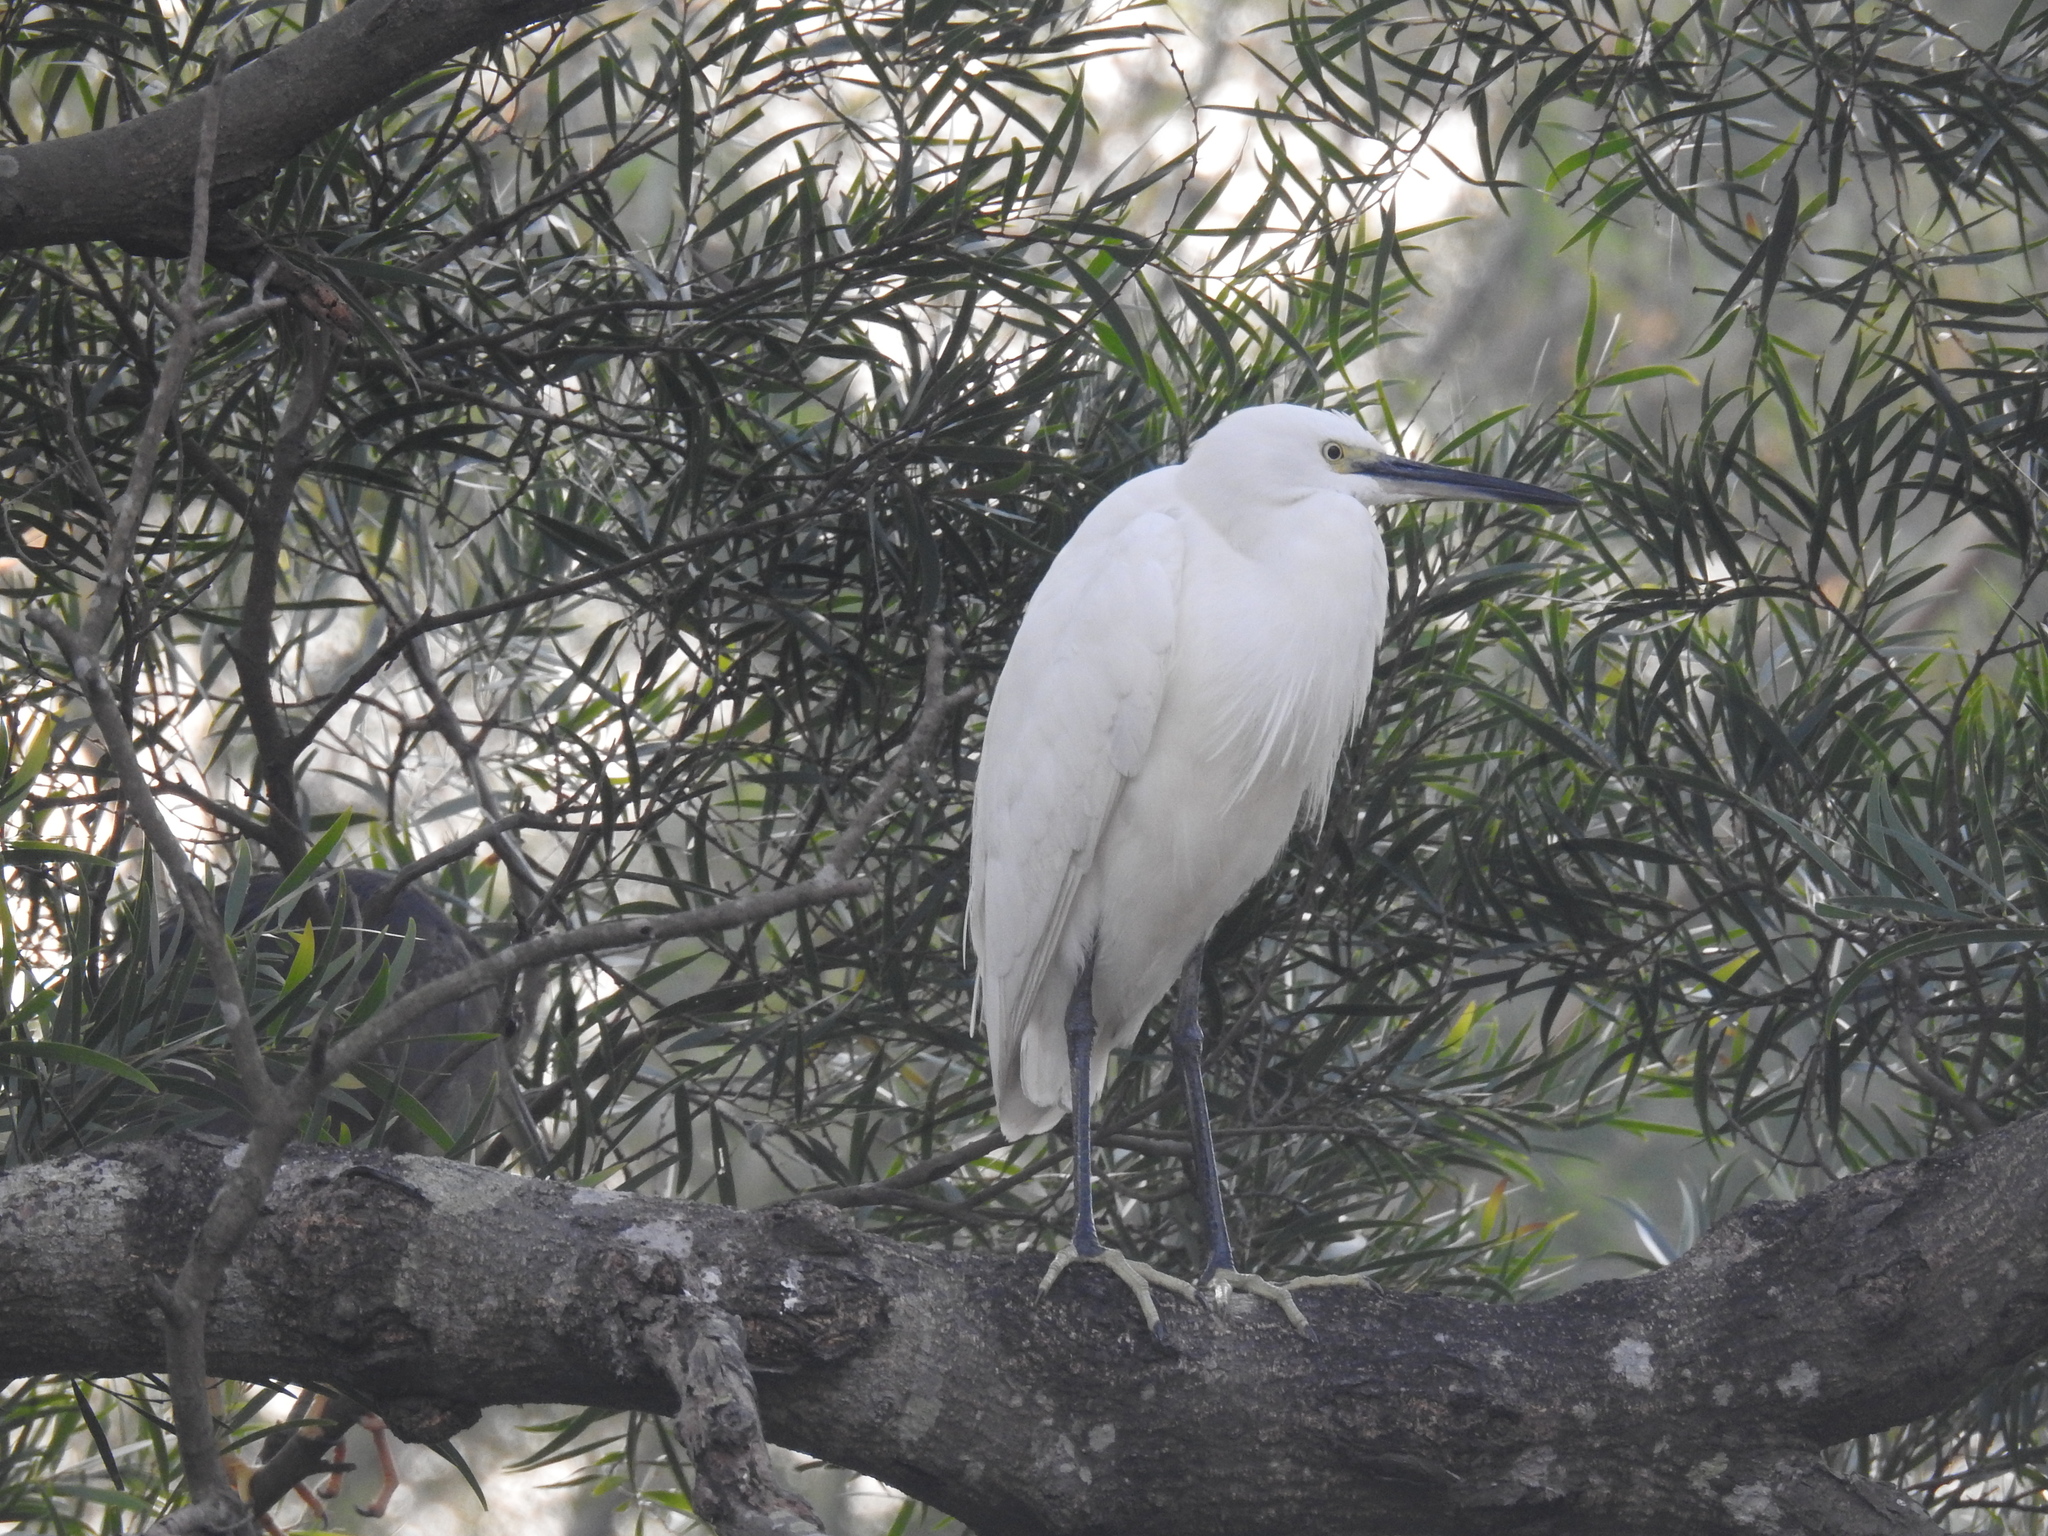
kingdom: Animalia
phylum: Chordata
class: Aves
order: Pelecaniformes
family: Ardeidae
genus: Egretta
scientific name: Egretta garzetta
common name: Little egret
